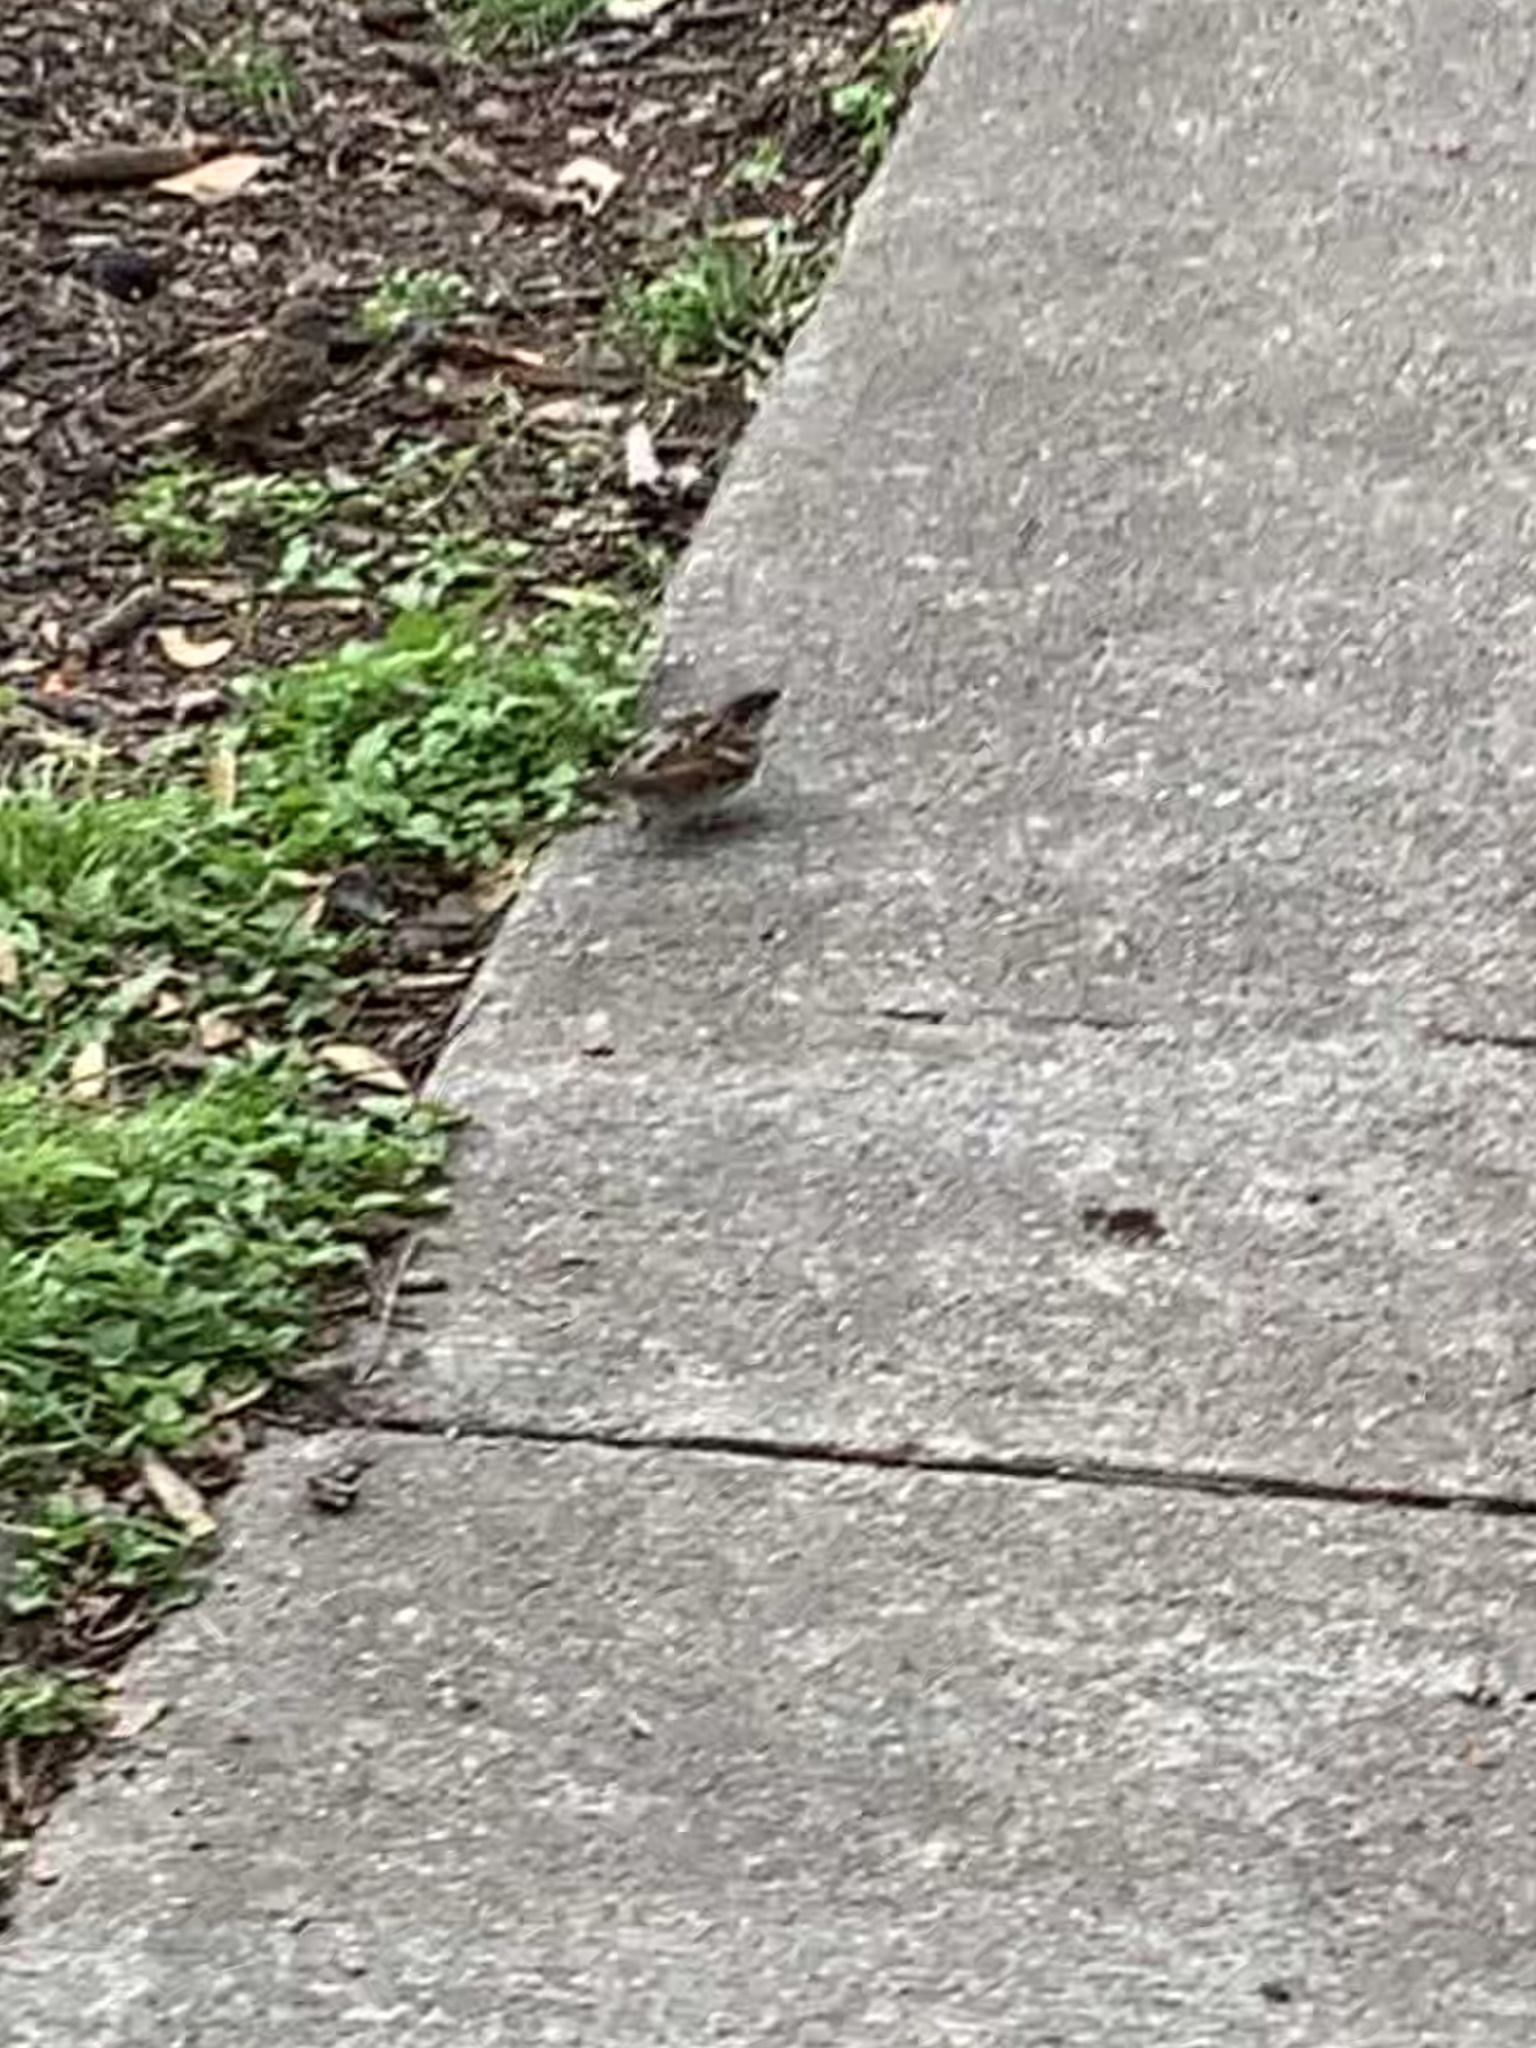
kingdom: Animalia
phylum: Chordata
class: Aves
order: Passeriformes
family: Passeridae
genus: Passer
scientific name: Passer domesticus
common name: House sparrow
